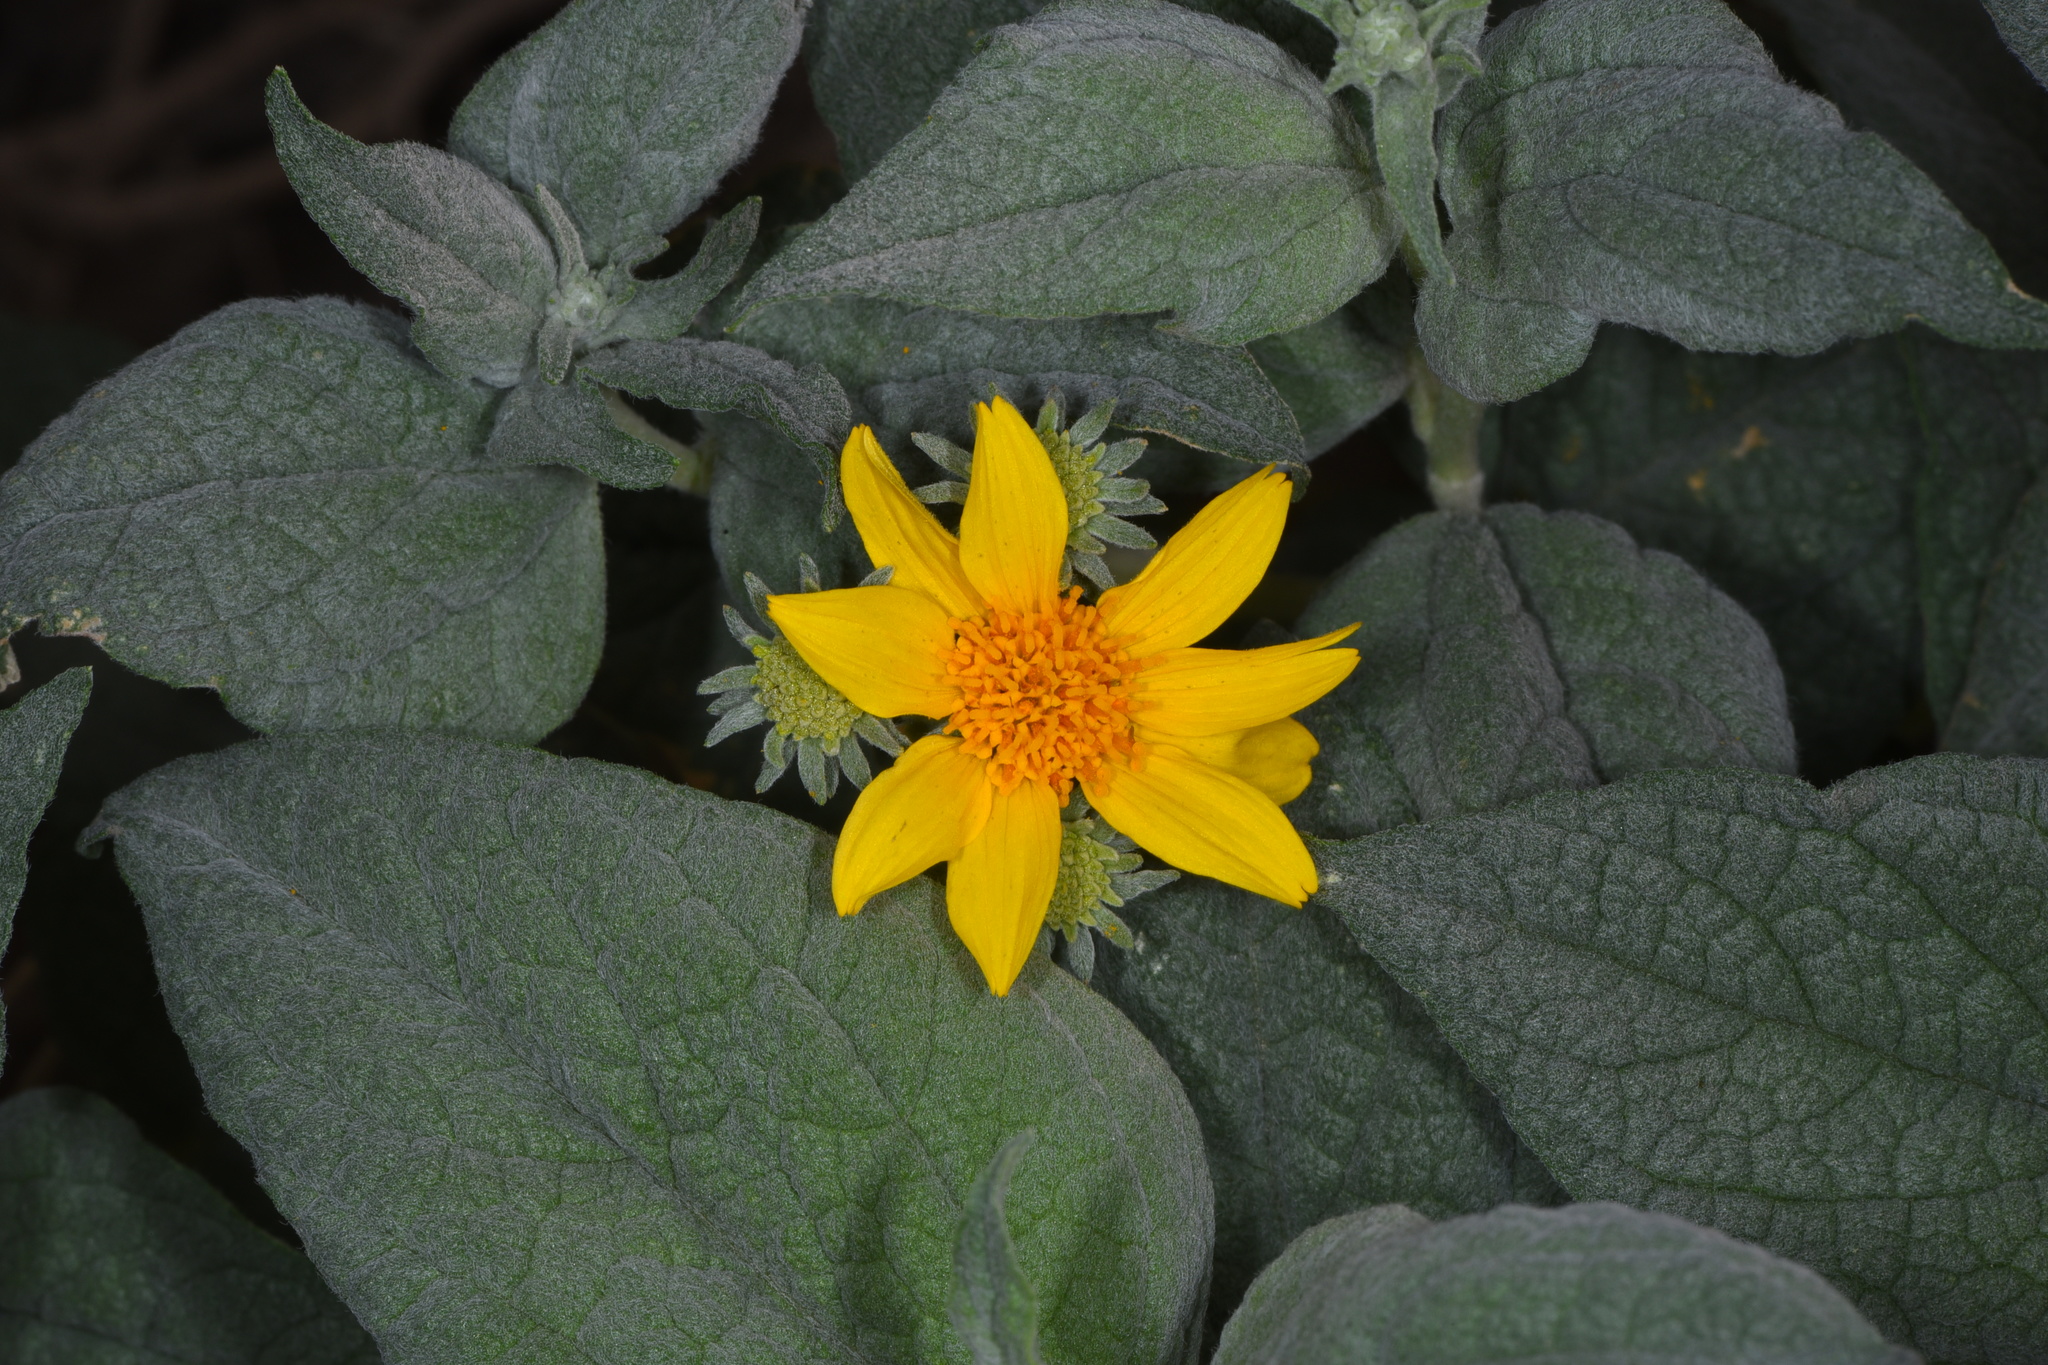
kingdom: Plantae
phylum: Tracheophyta
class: Magnoliopsida
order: Asterales
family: Asteraceae
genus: Bahiopsis
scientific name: Bahiopsis reticulata
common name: Death valley goldeneye
